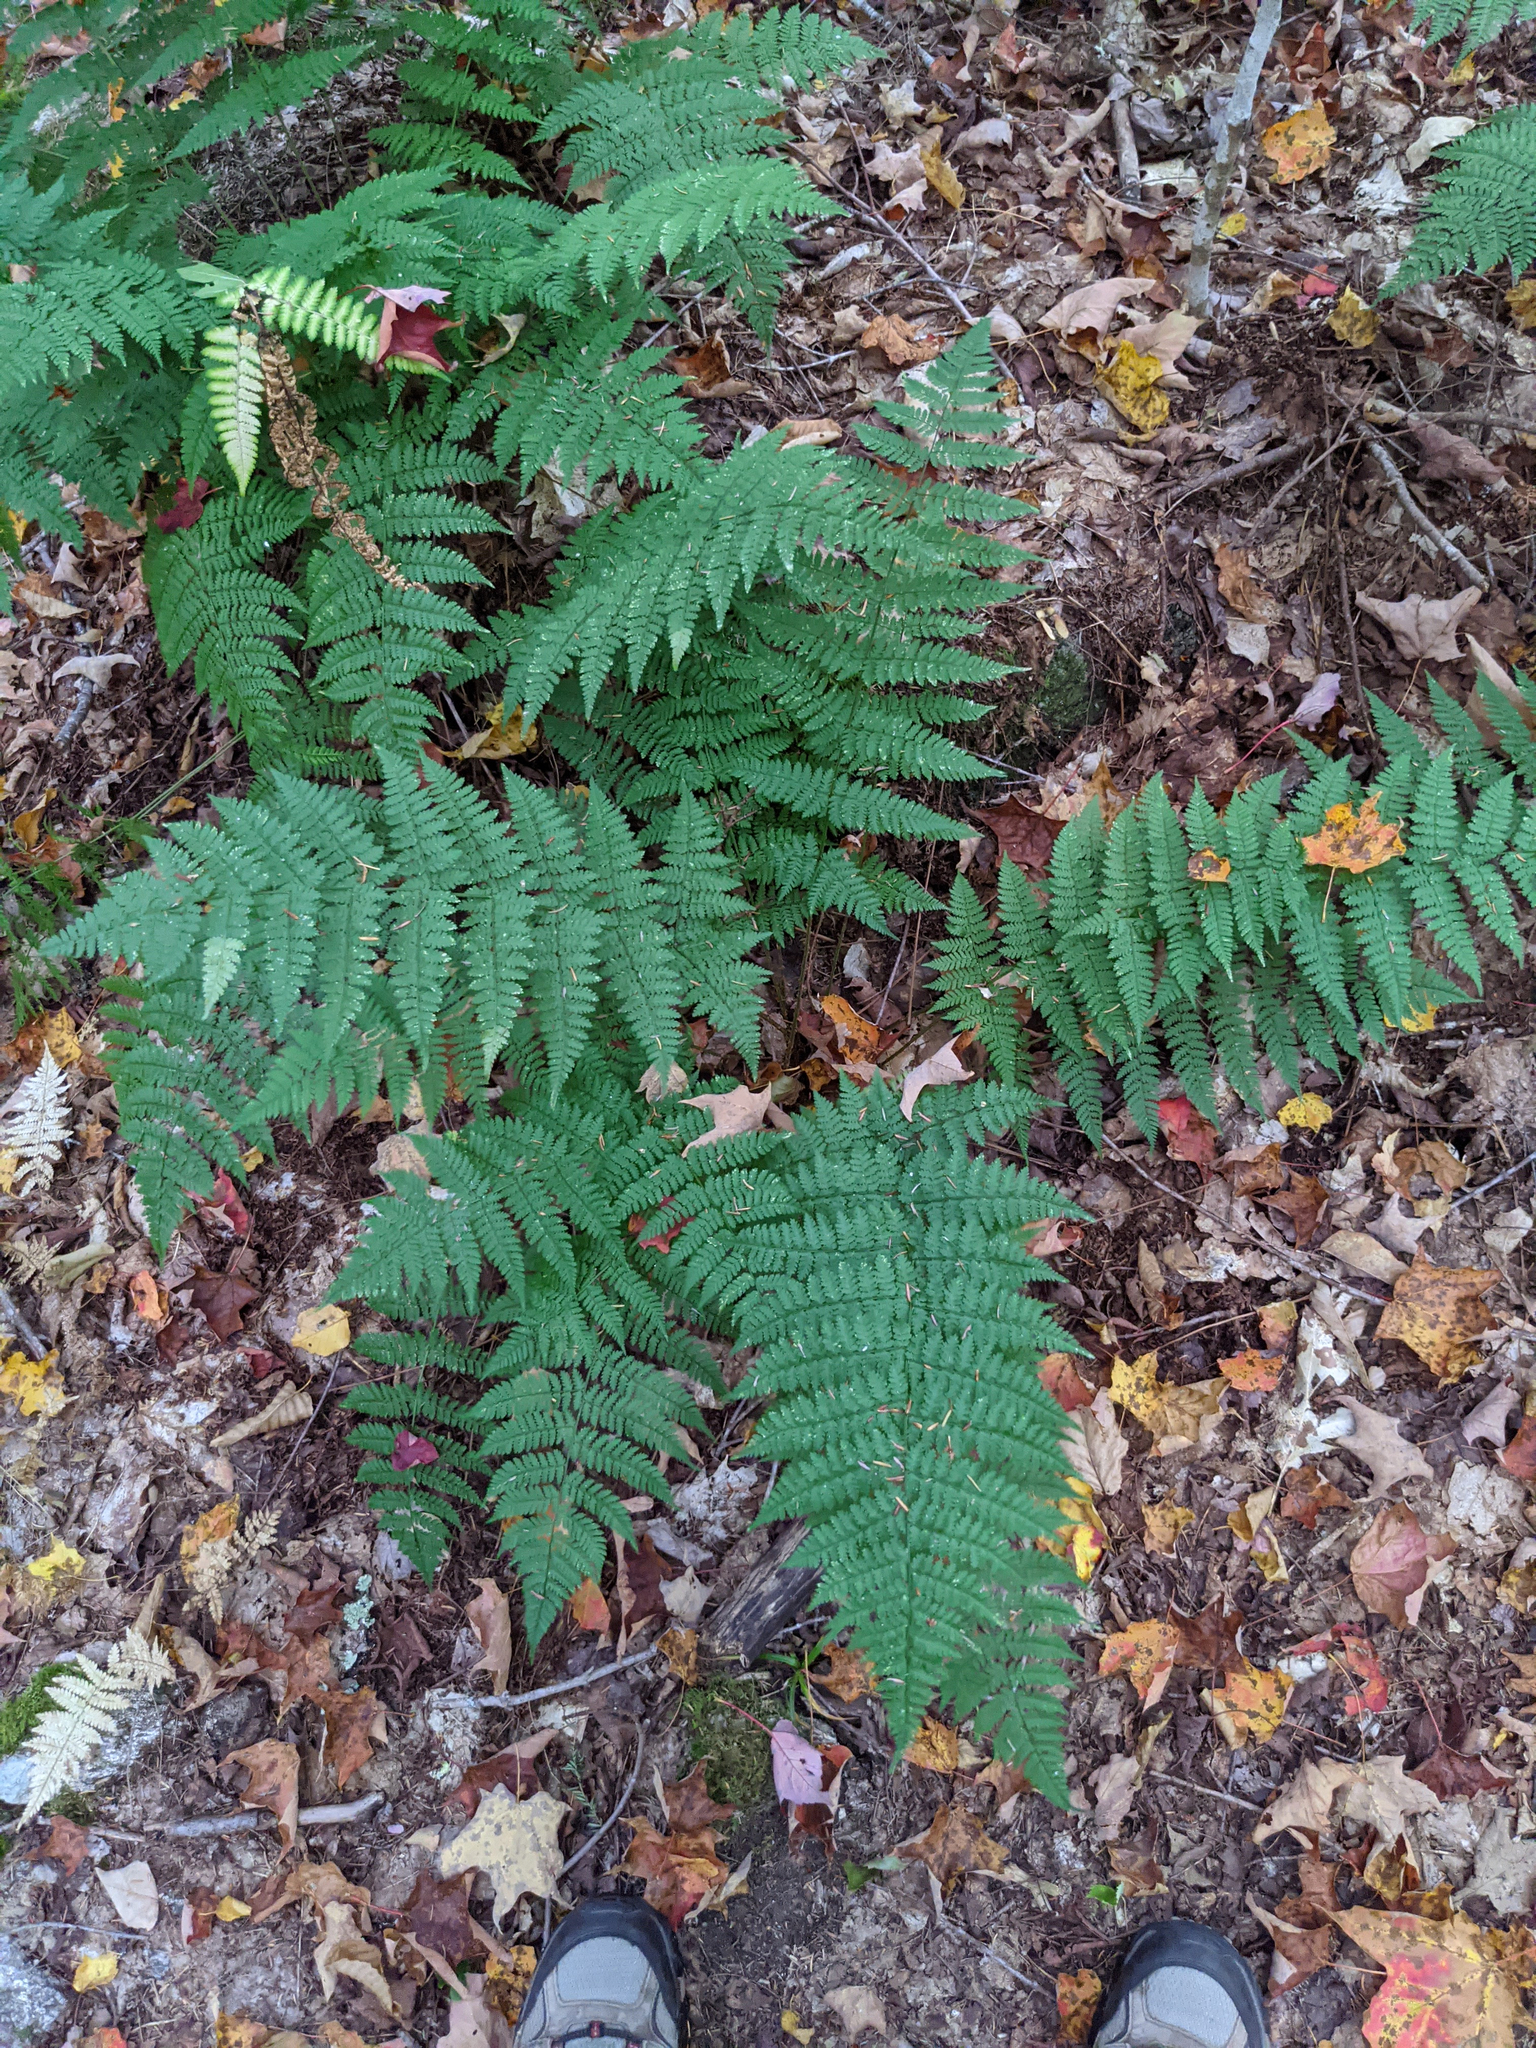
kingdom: Plantae
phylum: Tracheophyta
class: Polypodiopsida
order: Polypodiales
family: Dryopteridaceae
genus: Dryopteris
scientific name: Dryopteris intermedia
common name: Evergreen wood fern
